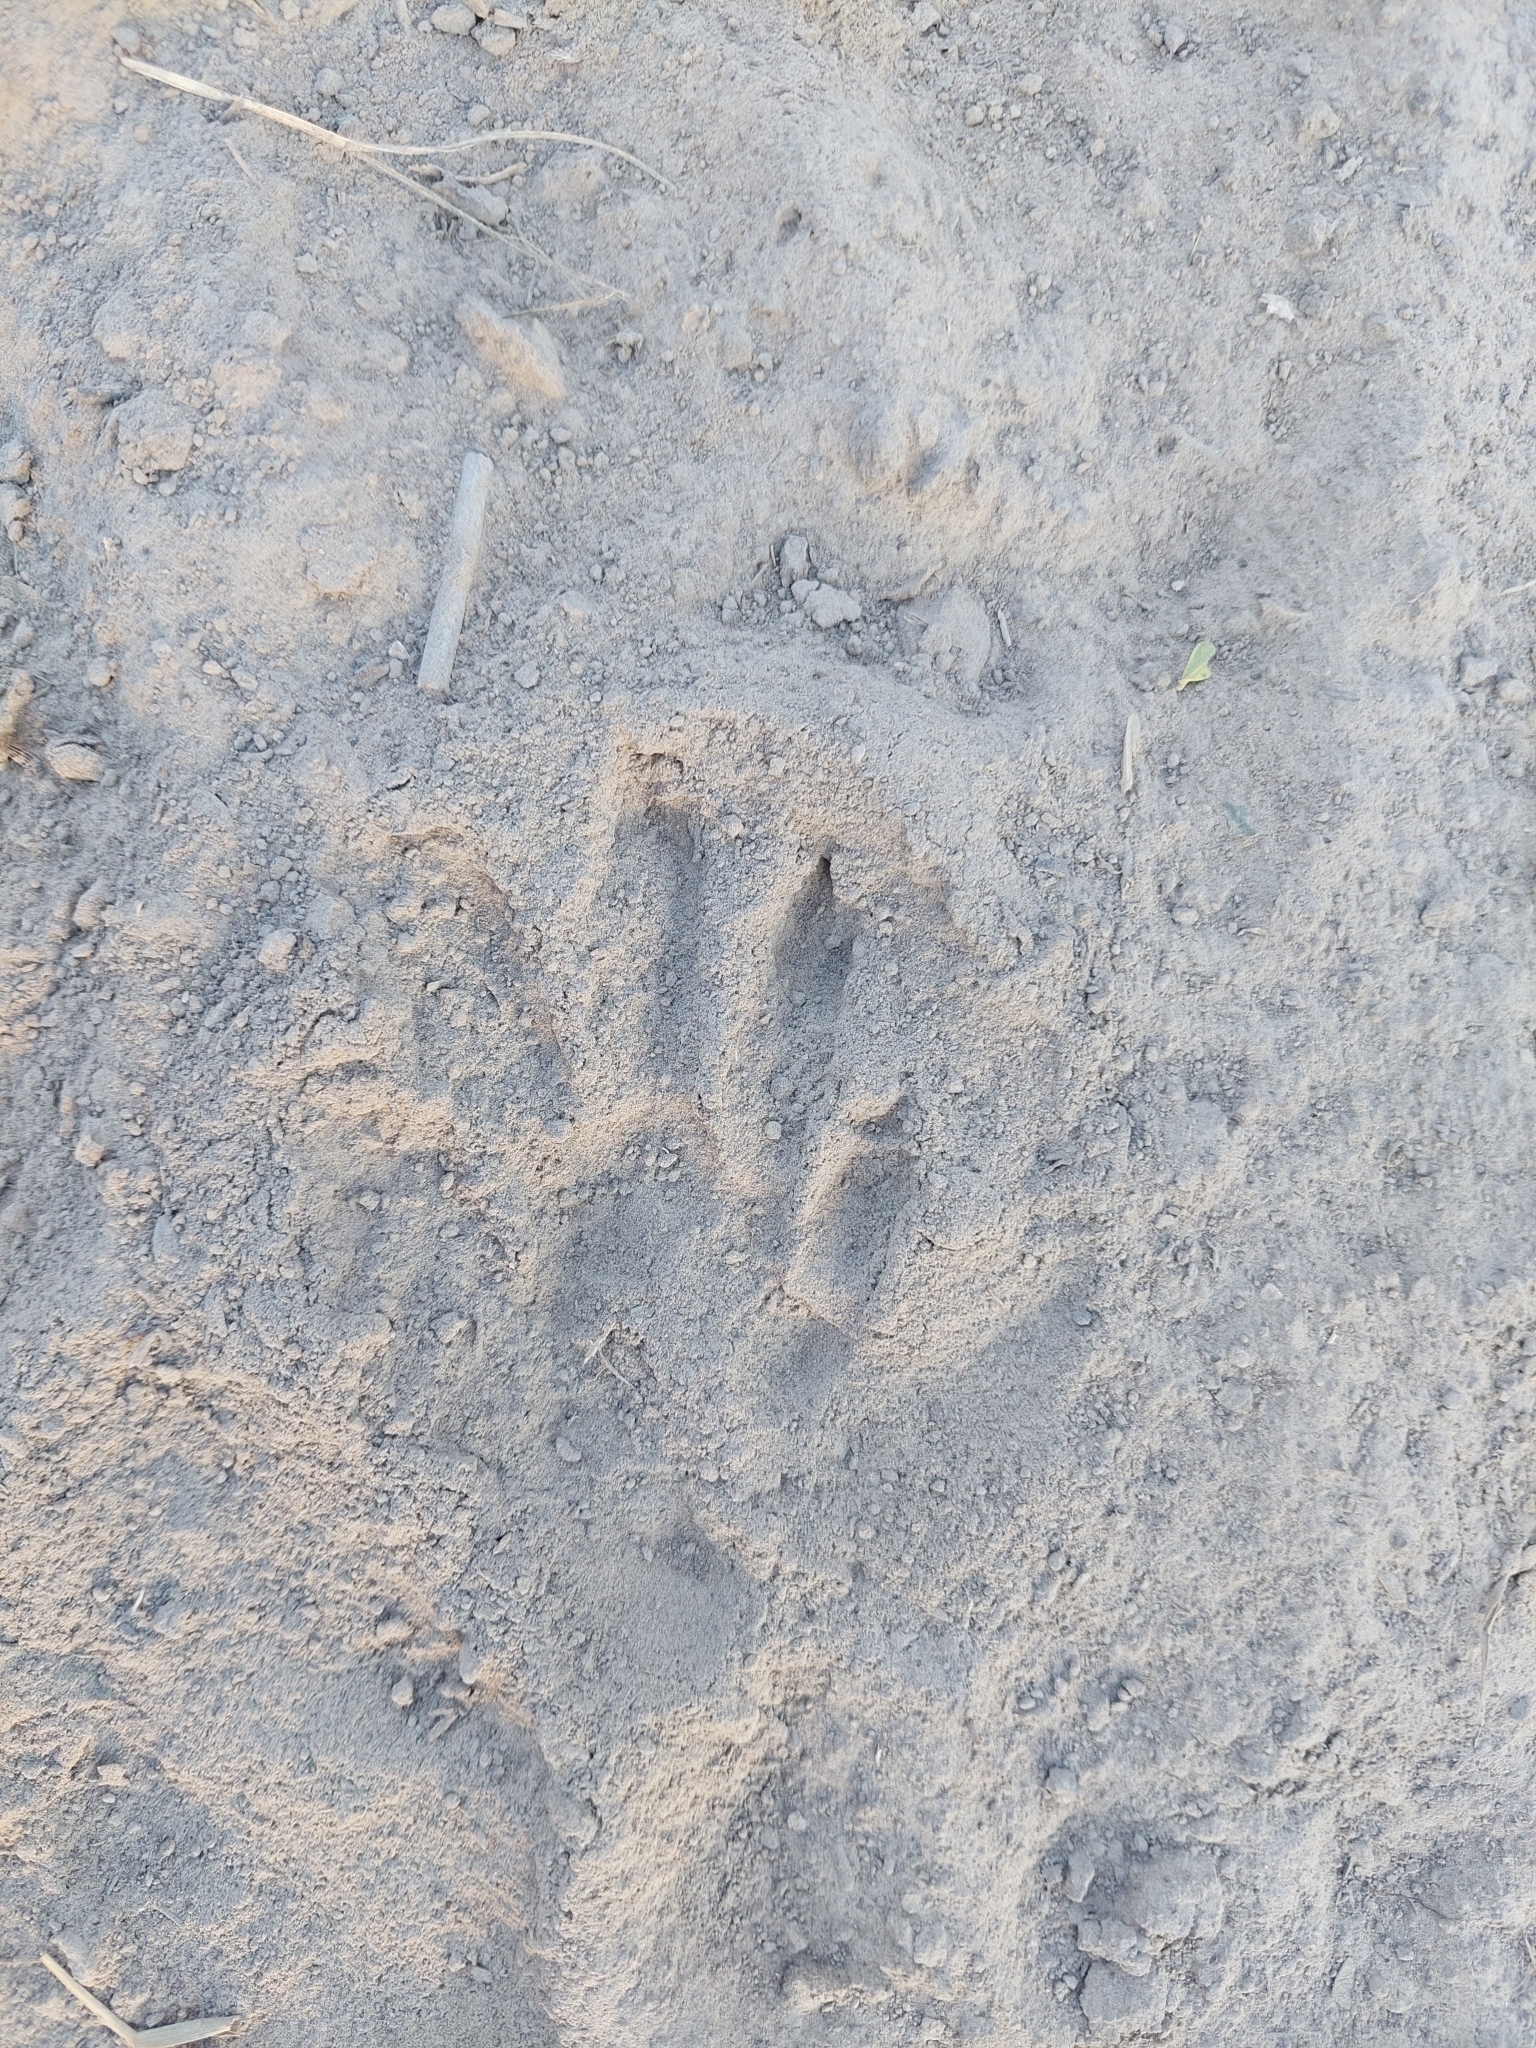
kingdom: Animalia
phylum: Chordata
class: Mammalia
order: Carnivora
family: Procyonidae
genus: Procyon
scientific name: Procyon cancrivorus
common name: Crab-eating raccoon
